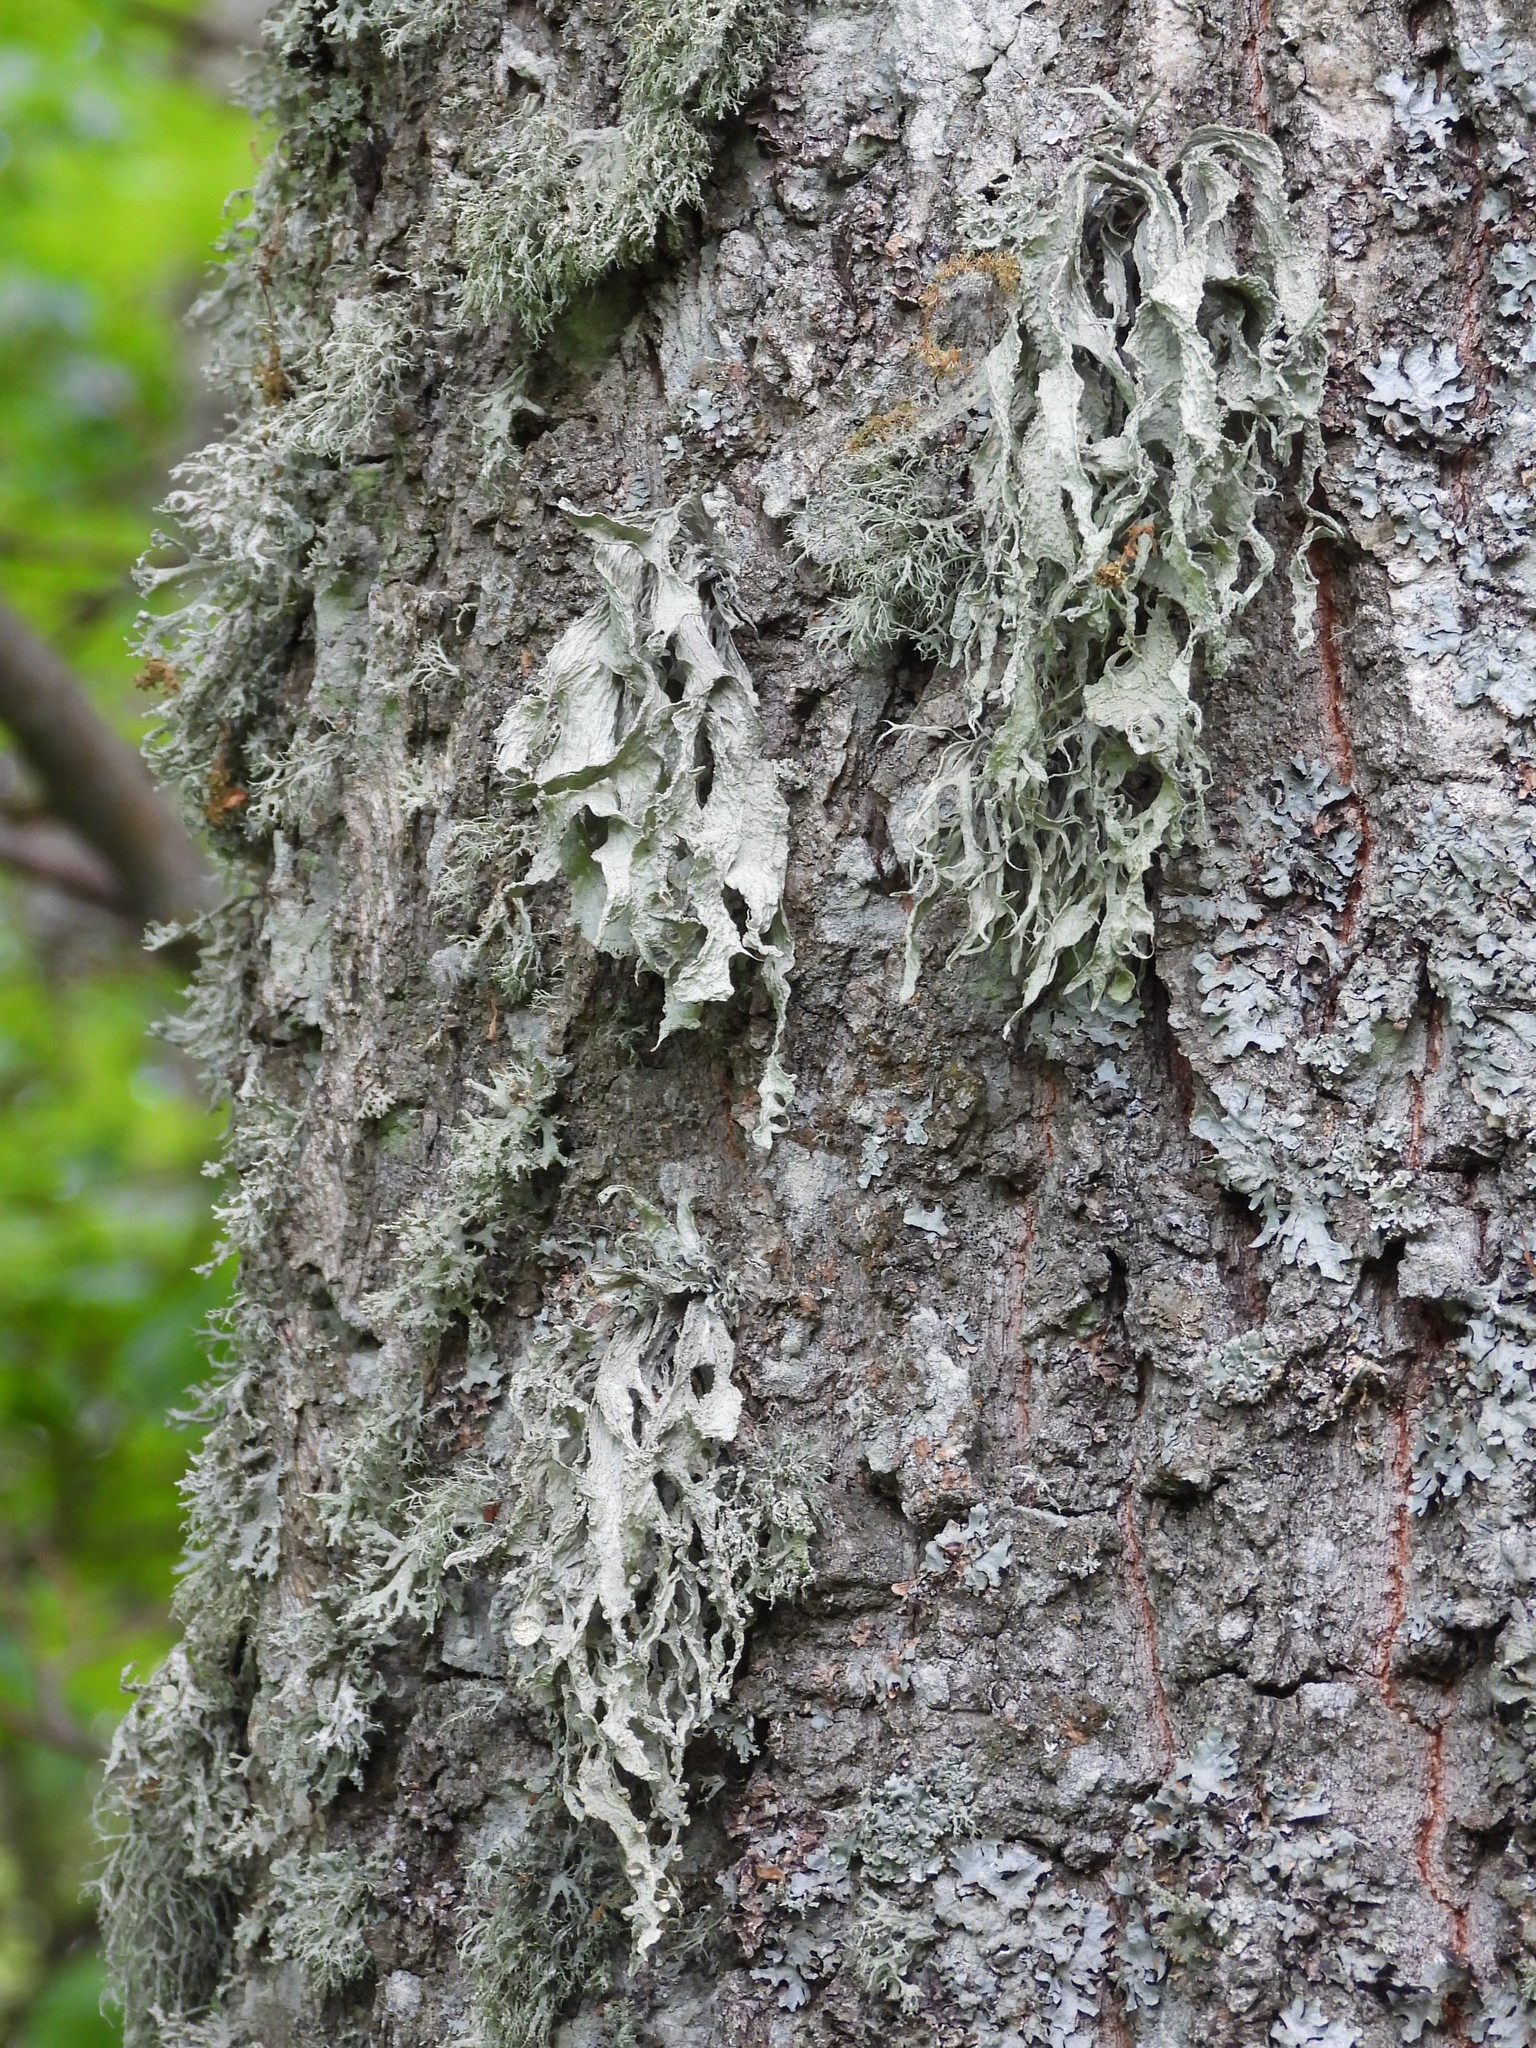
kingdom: Fungi
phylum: Ascomycota
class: Lecanoromycetes
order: Lecanorales
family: Ramalinaceae
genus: Ramalina
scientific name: Ramalina fraxinea
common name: Cartilage lichen
